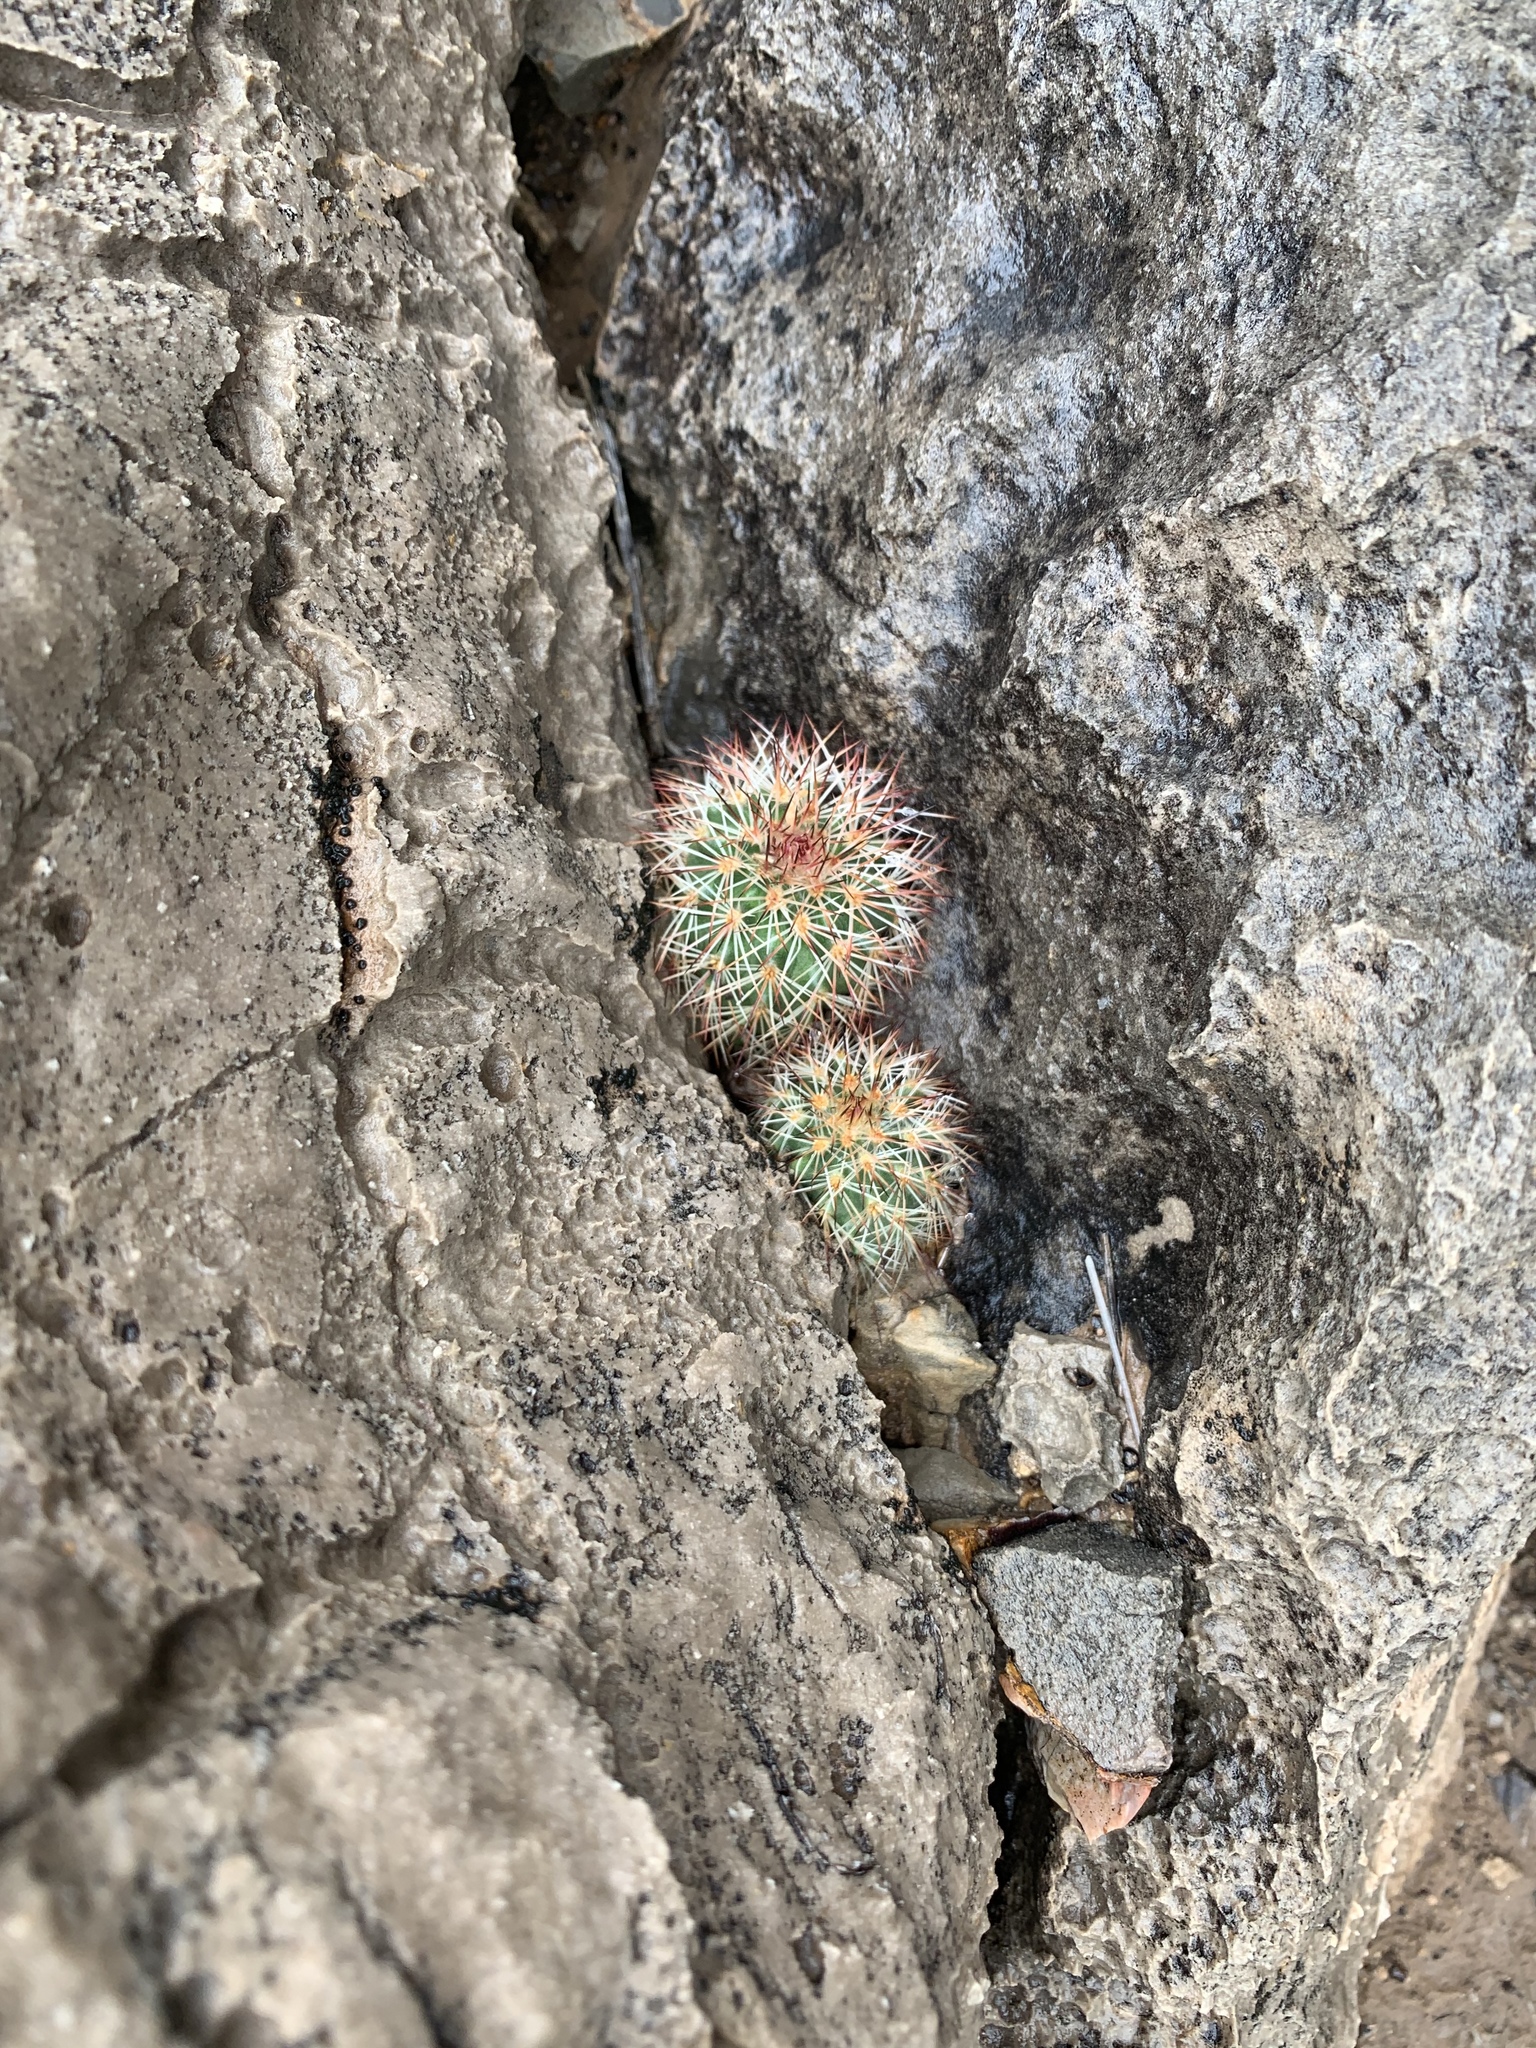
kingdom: Plantae
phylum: Tracheophyta
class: Magnoliopsida
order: Caryophyllales
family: Cactaceae
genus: Echinocereus
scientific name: Echinocereus dasyacanthus
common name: Spiny hedgehog cactus
